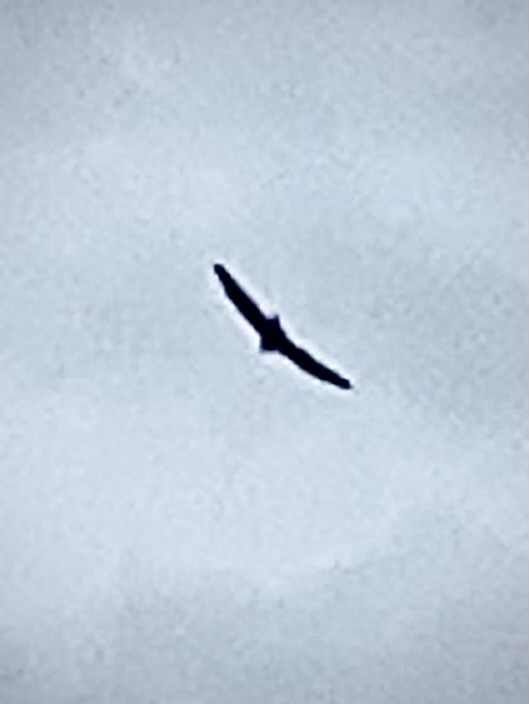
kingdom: Animalia
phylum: Chordata
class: Aves
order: Accipitriformes
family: Cathartidae
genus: Cathartes
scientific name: Cathartes aura
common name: Turkey vulture
